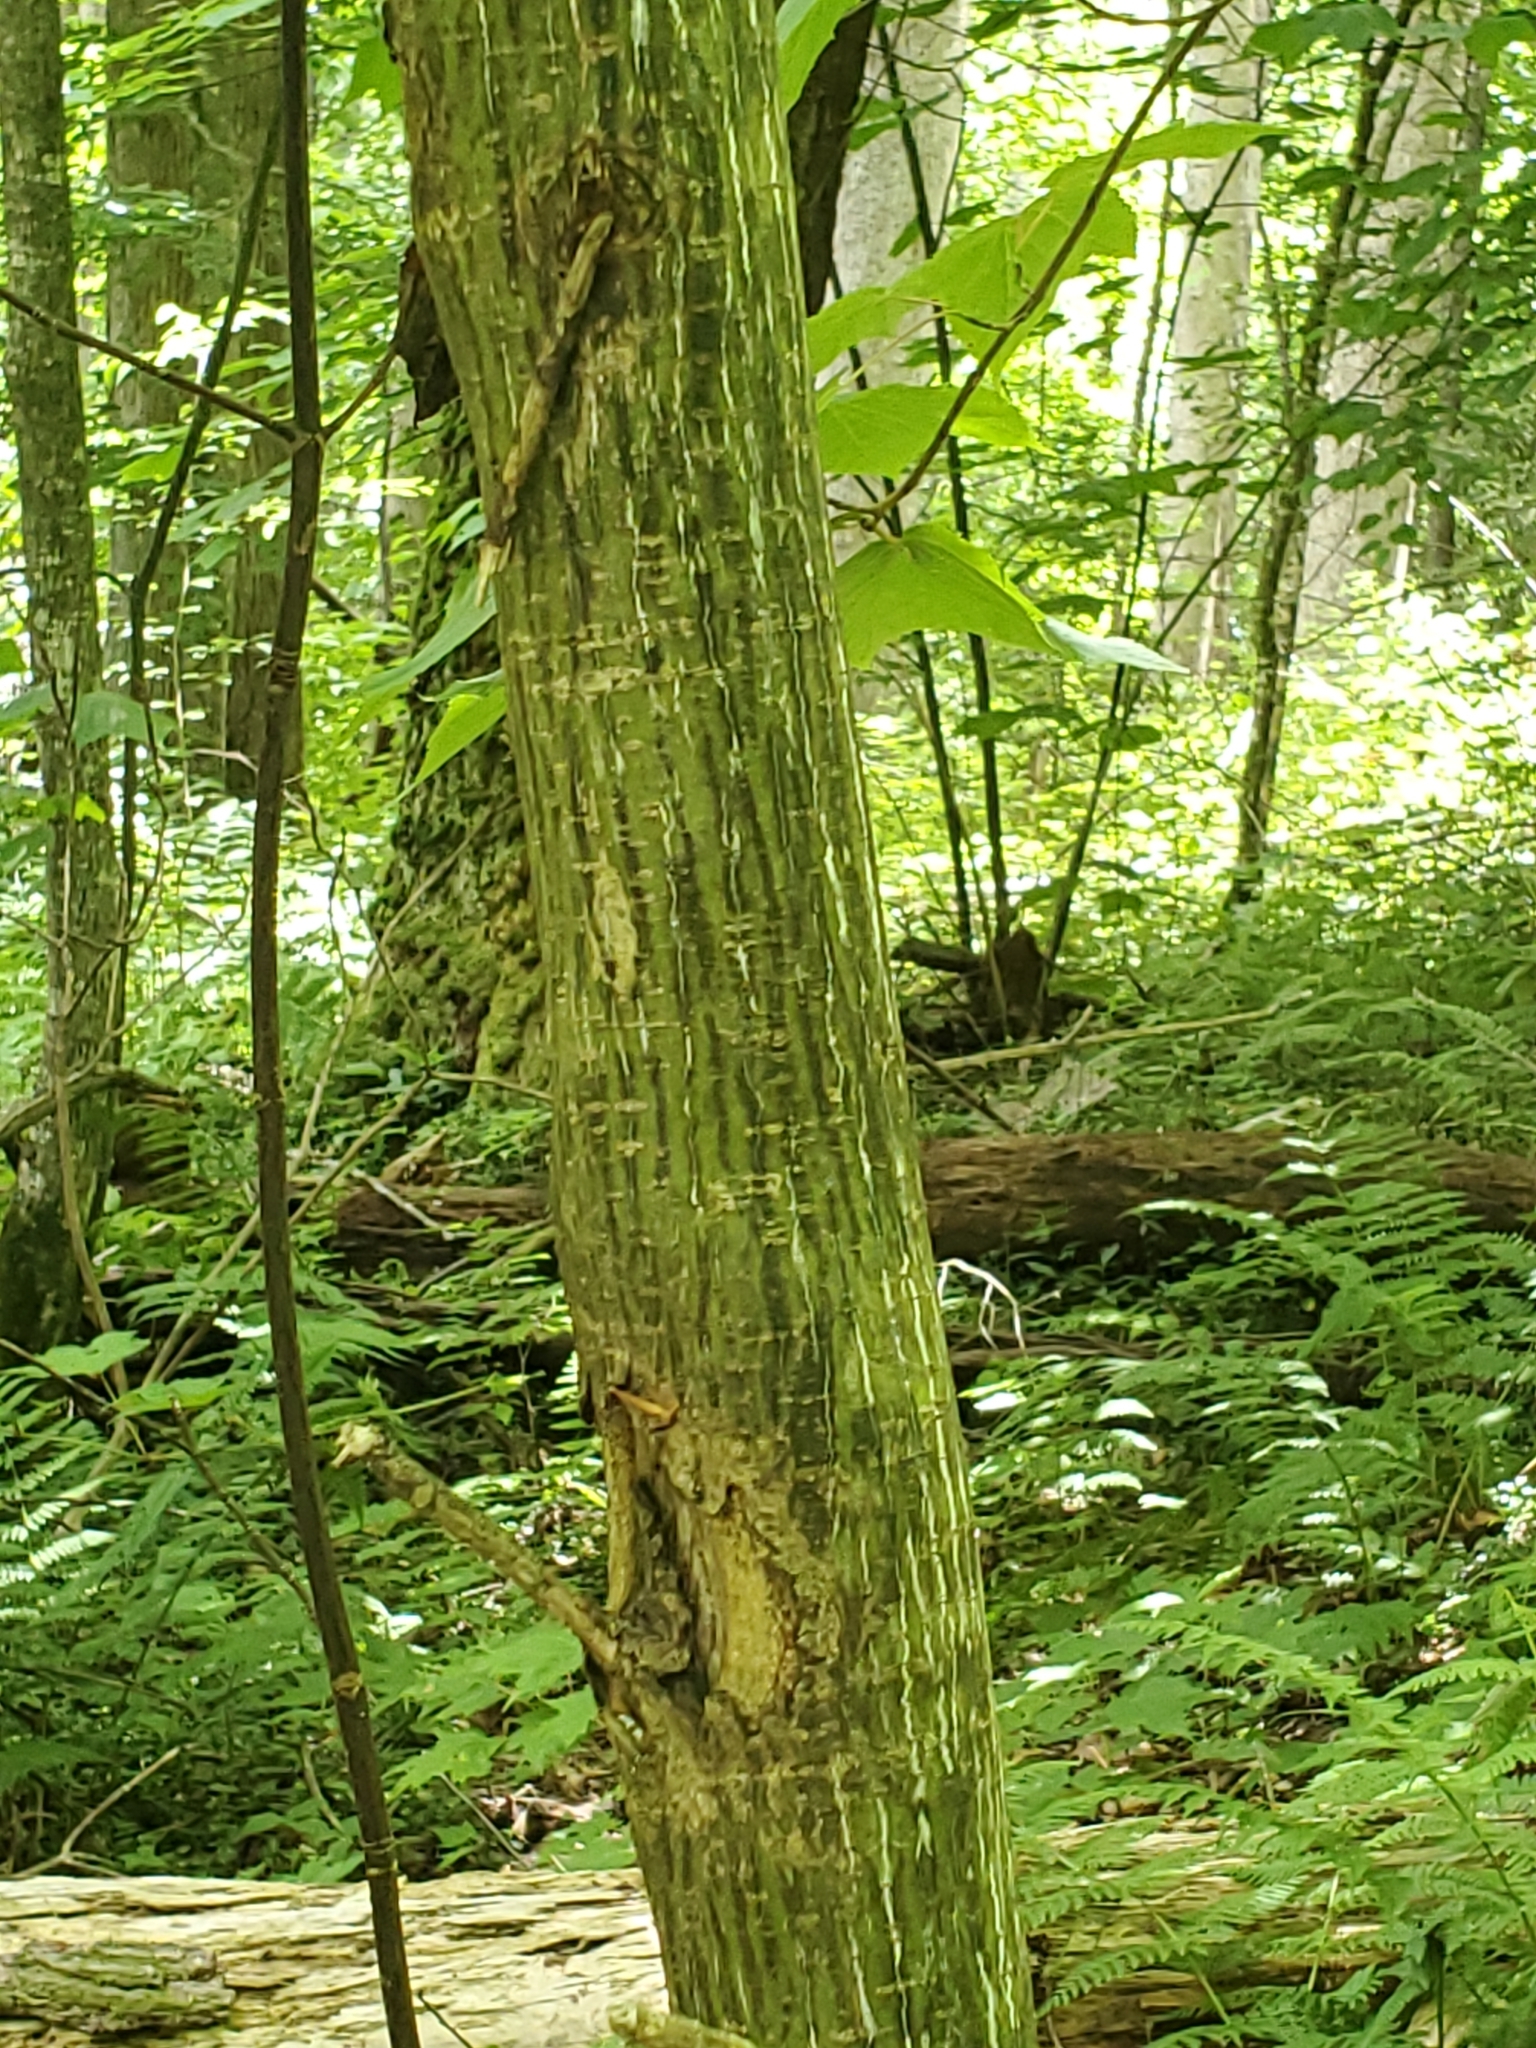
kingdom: Plantae
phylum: Tracheophyta
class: Magnoliopsida
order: Sapindales
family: Sapindaceae
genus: Acer
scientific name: Acer pensylvanicum
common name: Moosewood
